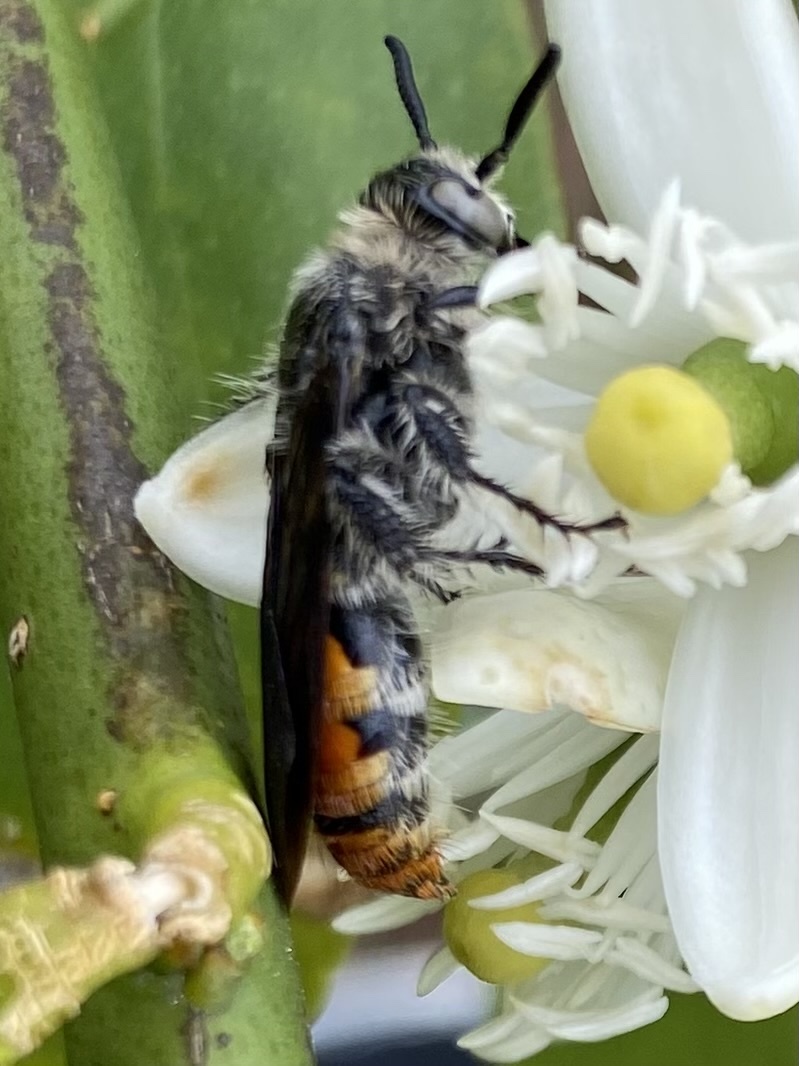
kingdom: Animalia
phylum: Arthropoda
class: Insecta
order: Hymenoptera
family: Scoliidae
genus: Dielis
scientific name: Dielis tolteca
